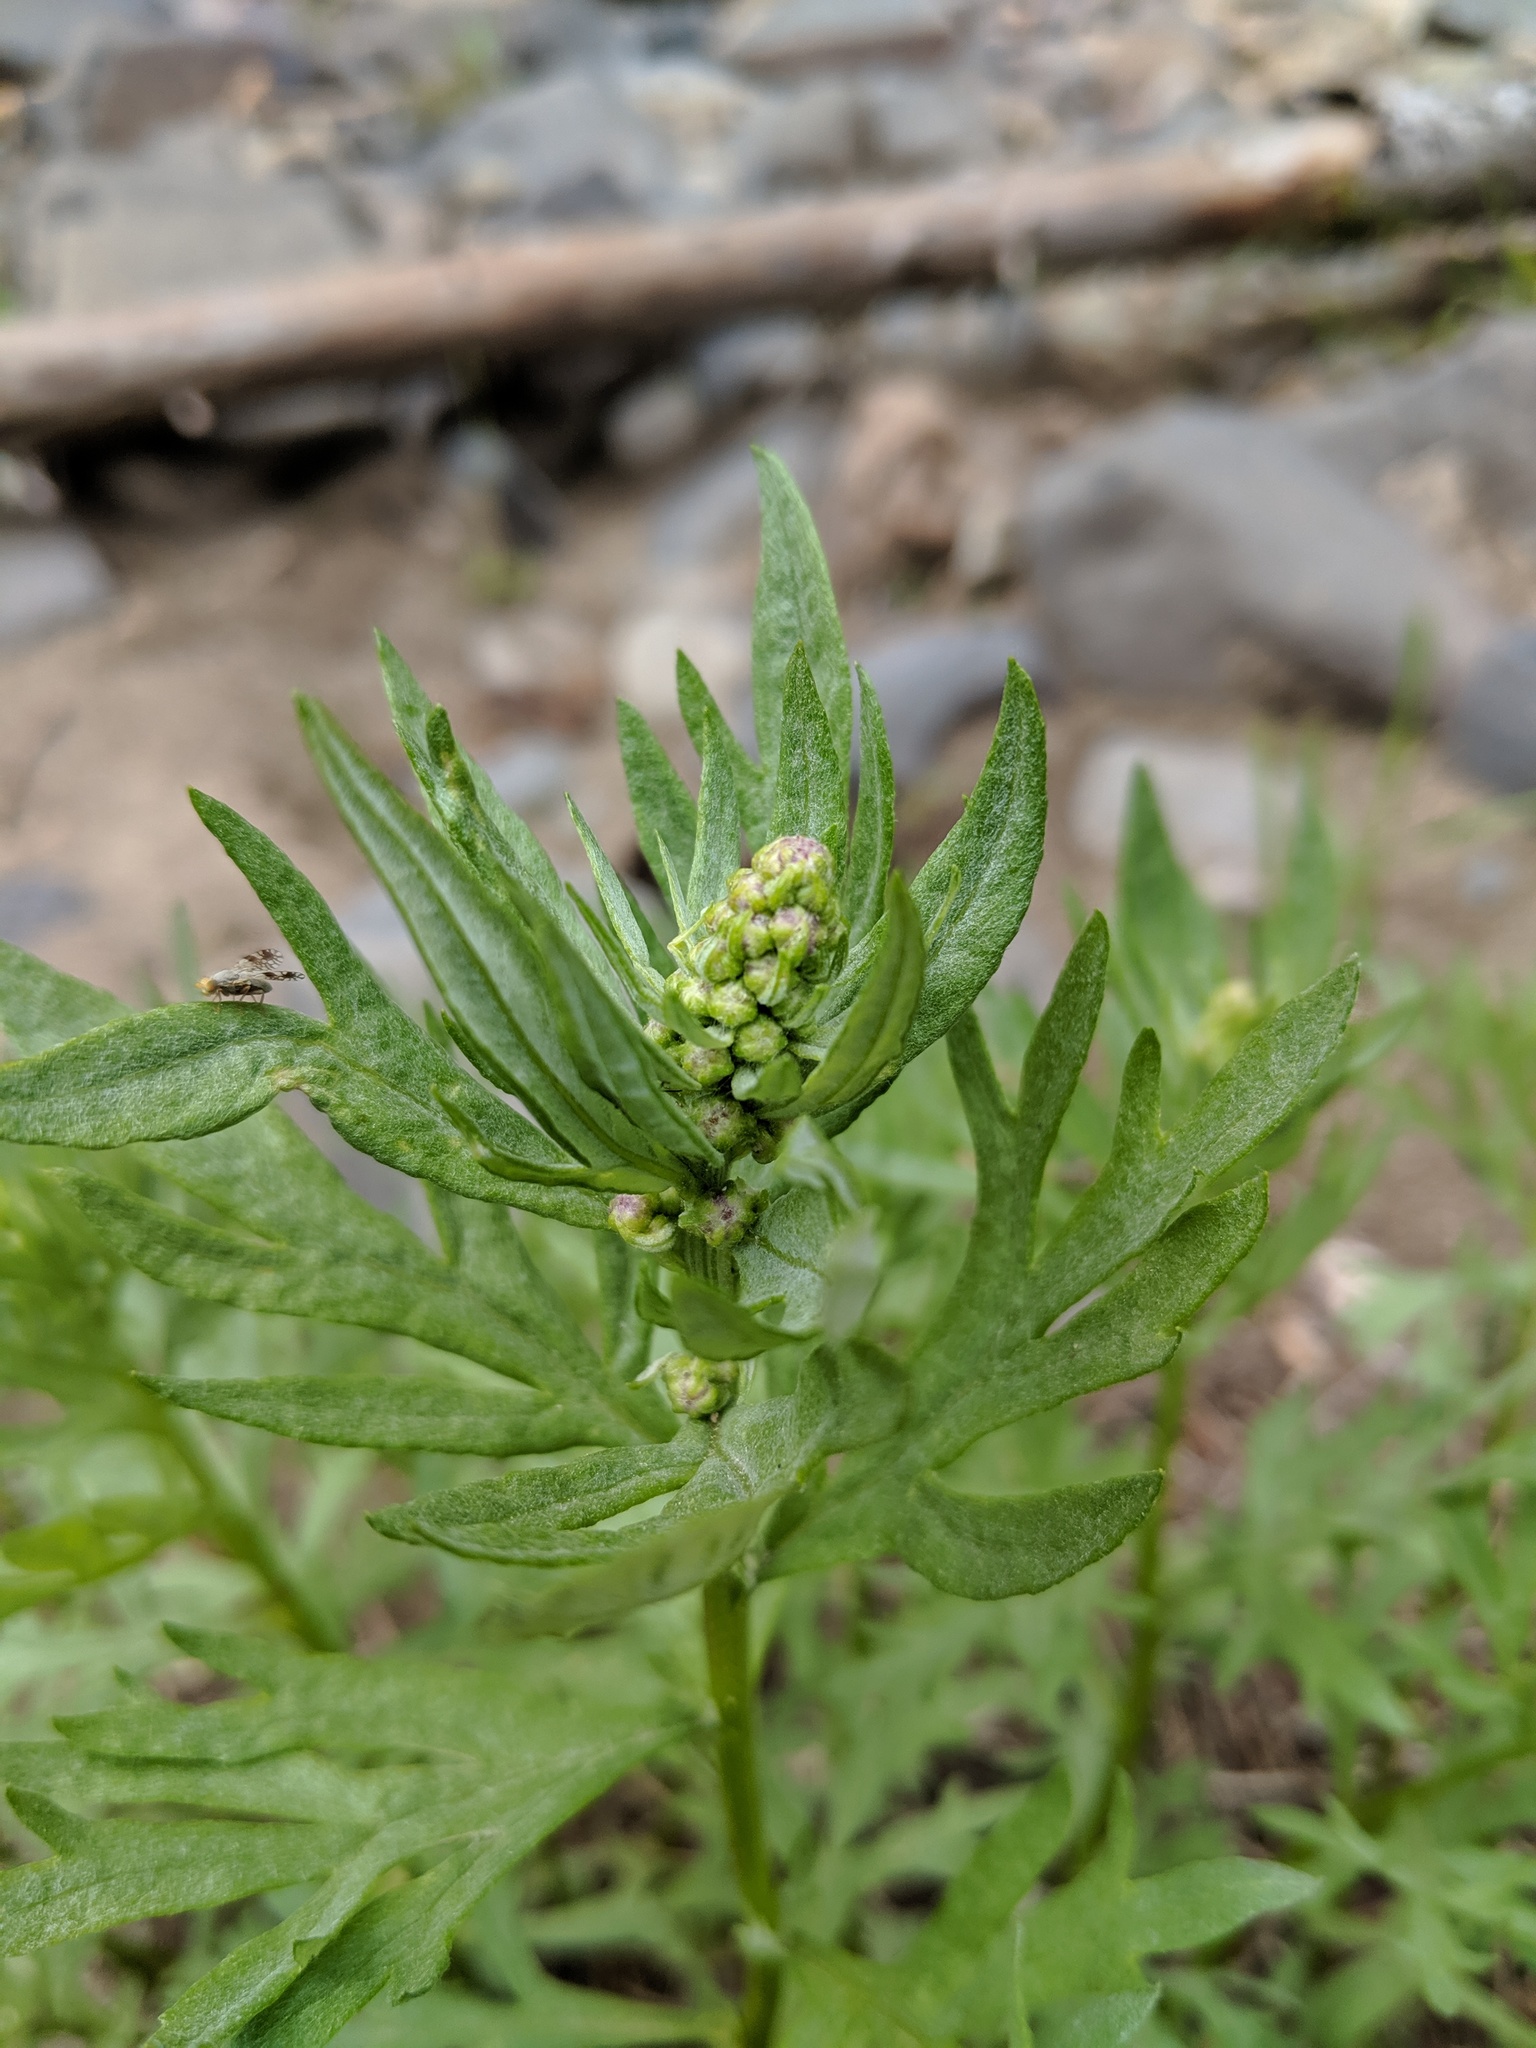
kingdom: Plantae
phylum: Tracheophyta
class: Magnoliopsida
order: Asterales
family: Asteraceae
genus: Artemisia
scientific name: Artemisia ludoviciana
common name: Western mugwort
